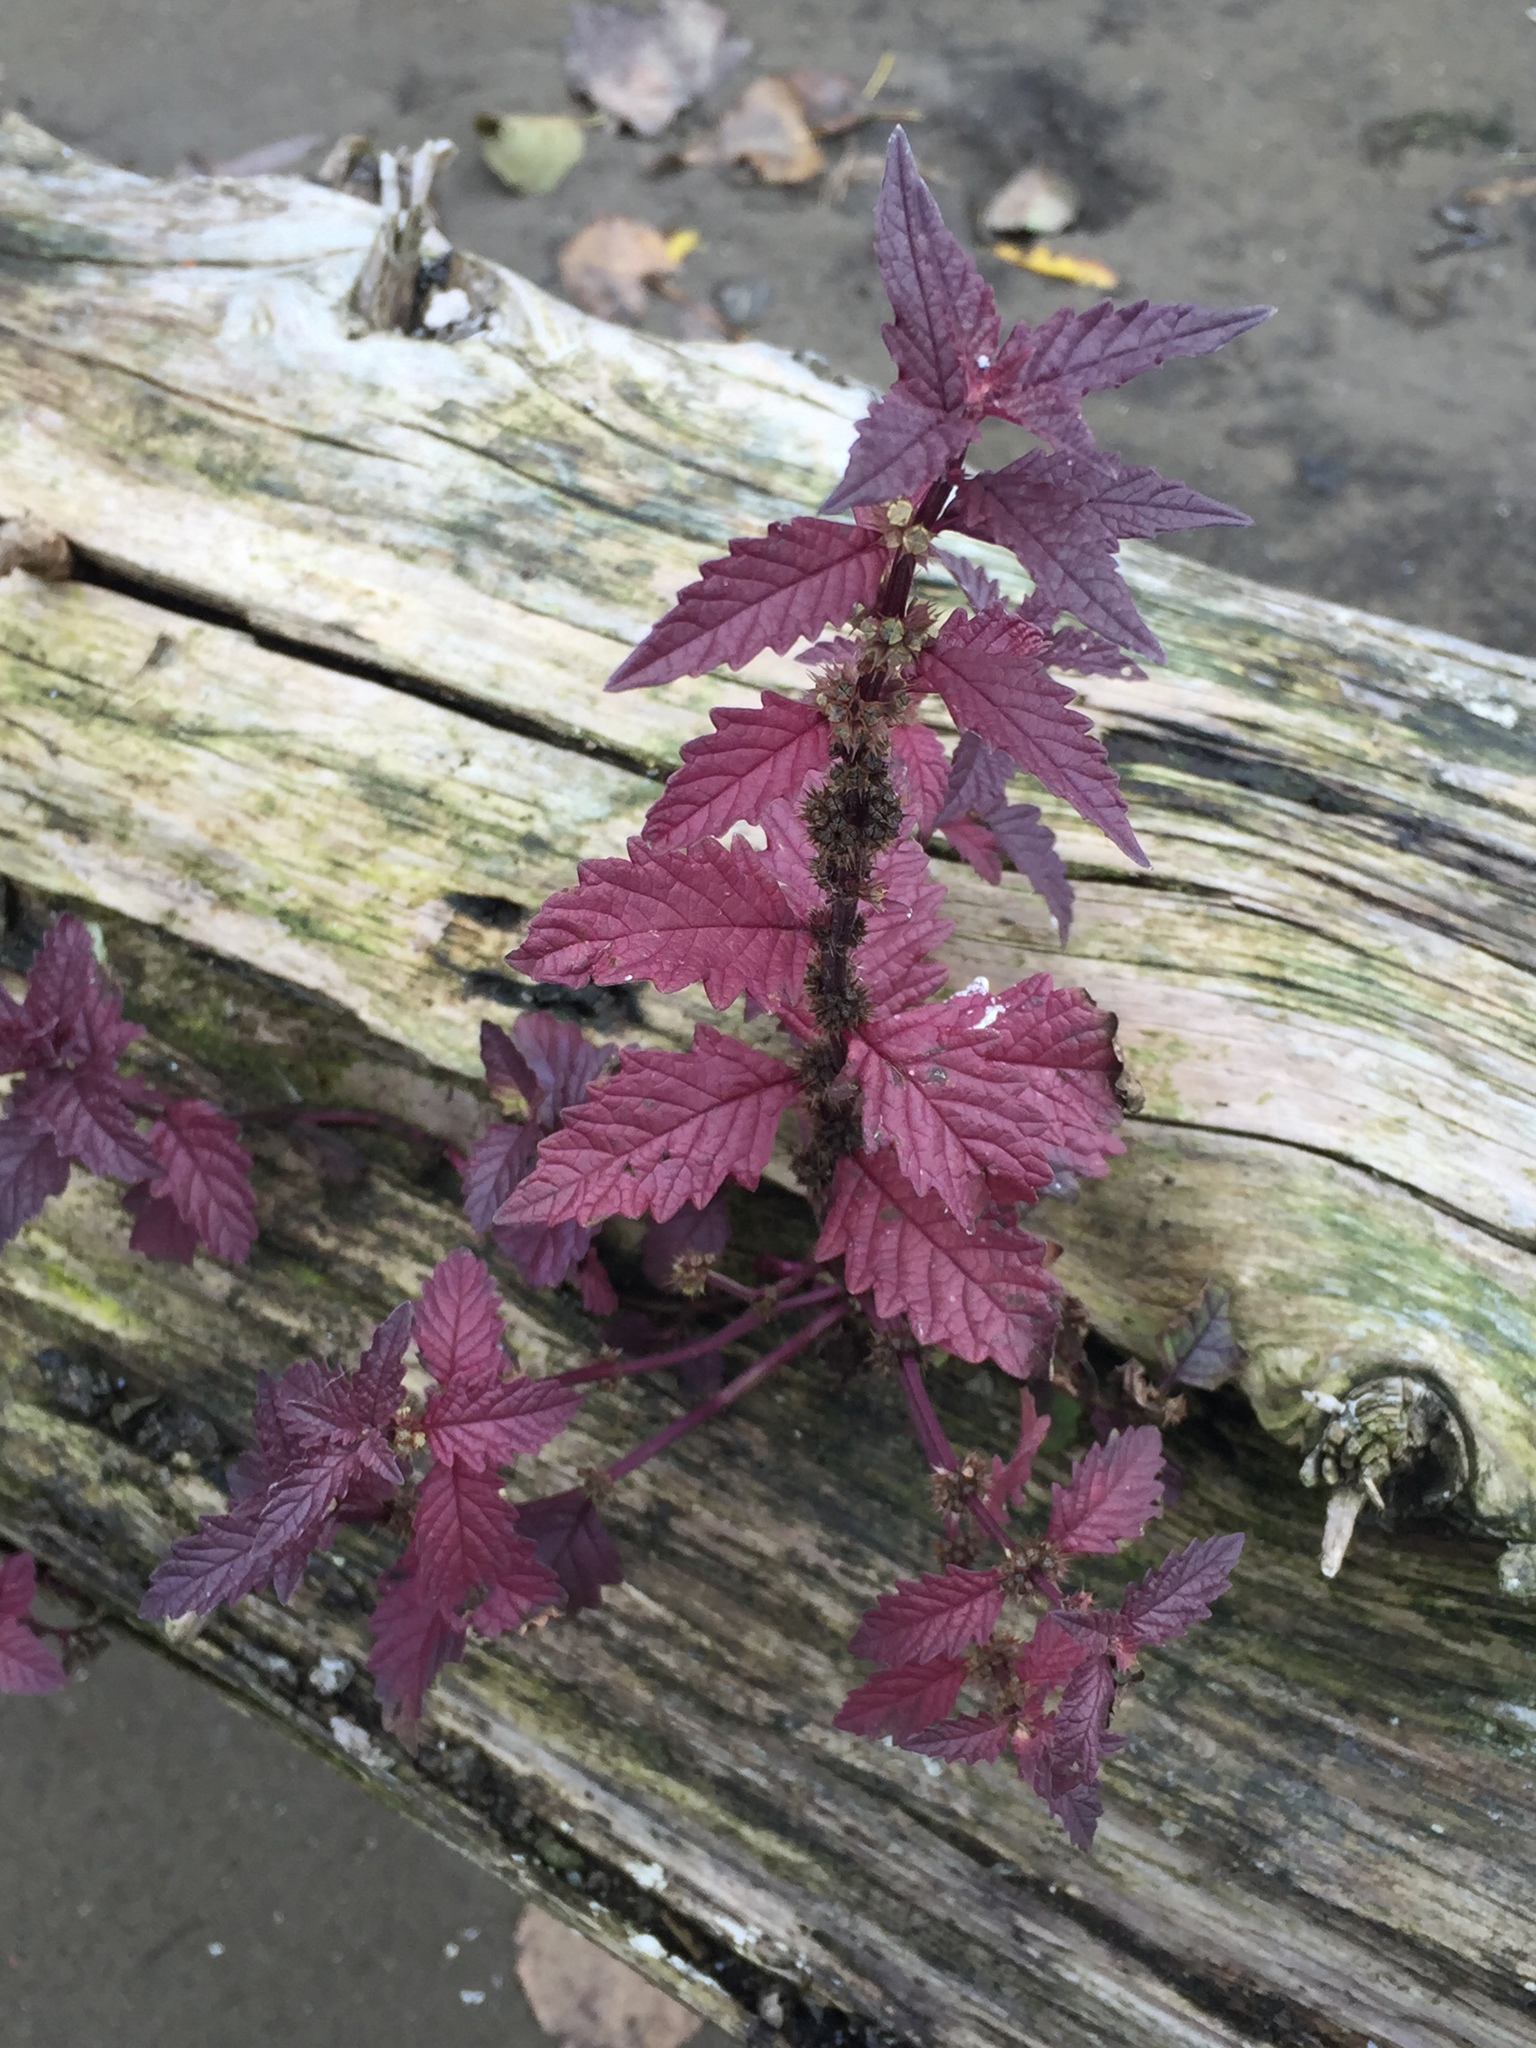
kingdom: Plantae
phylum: Tracheophyta
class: Magnoliopsida
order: Lamiales
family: Lamiaceae
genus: Lycopus
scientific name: Lycopus europaeus
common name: European bugleweed
